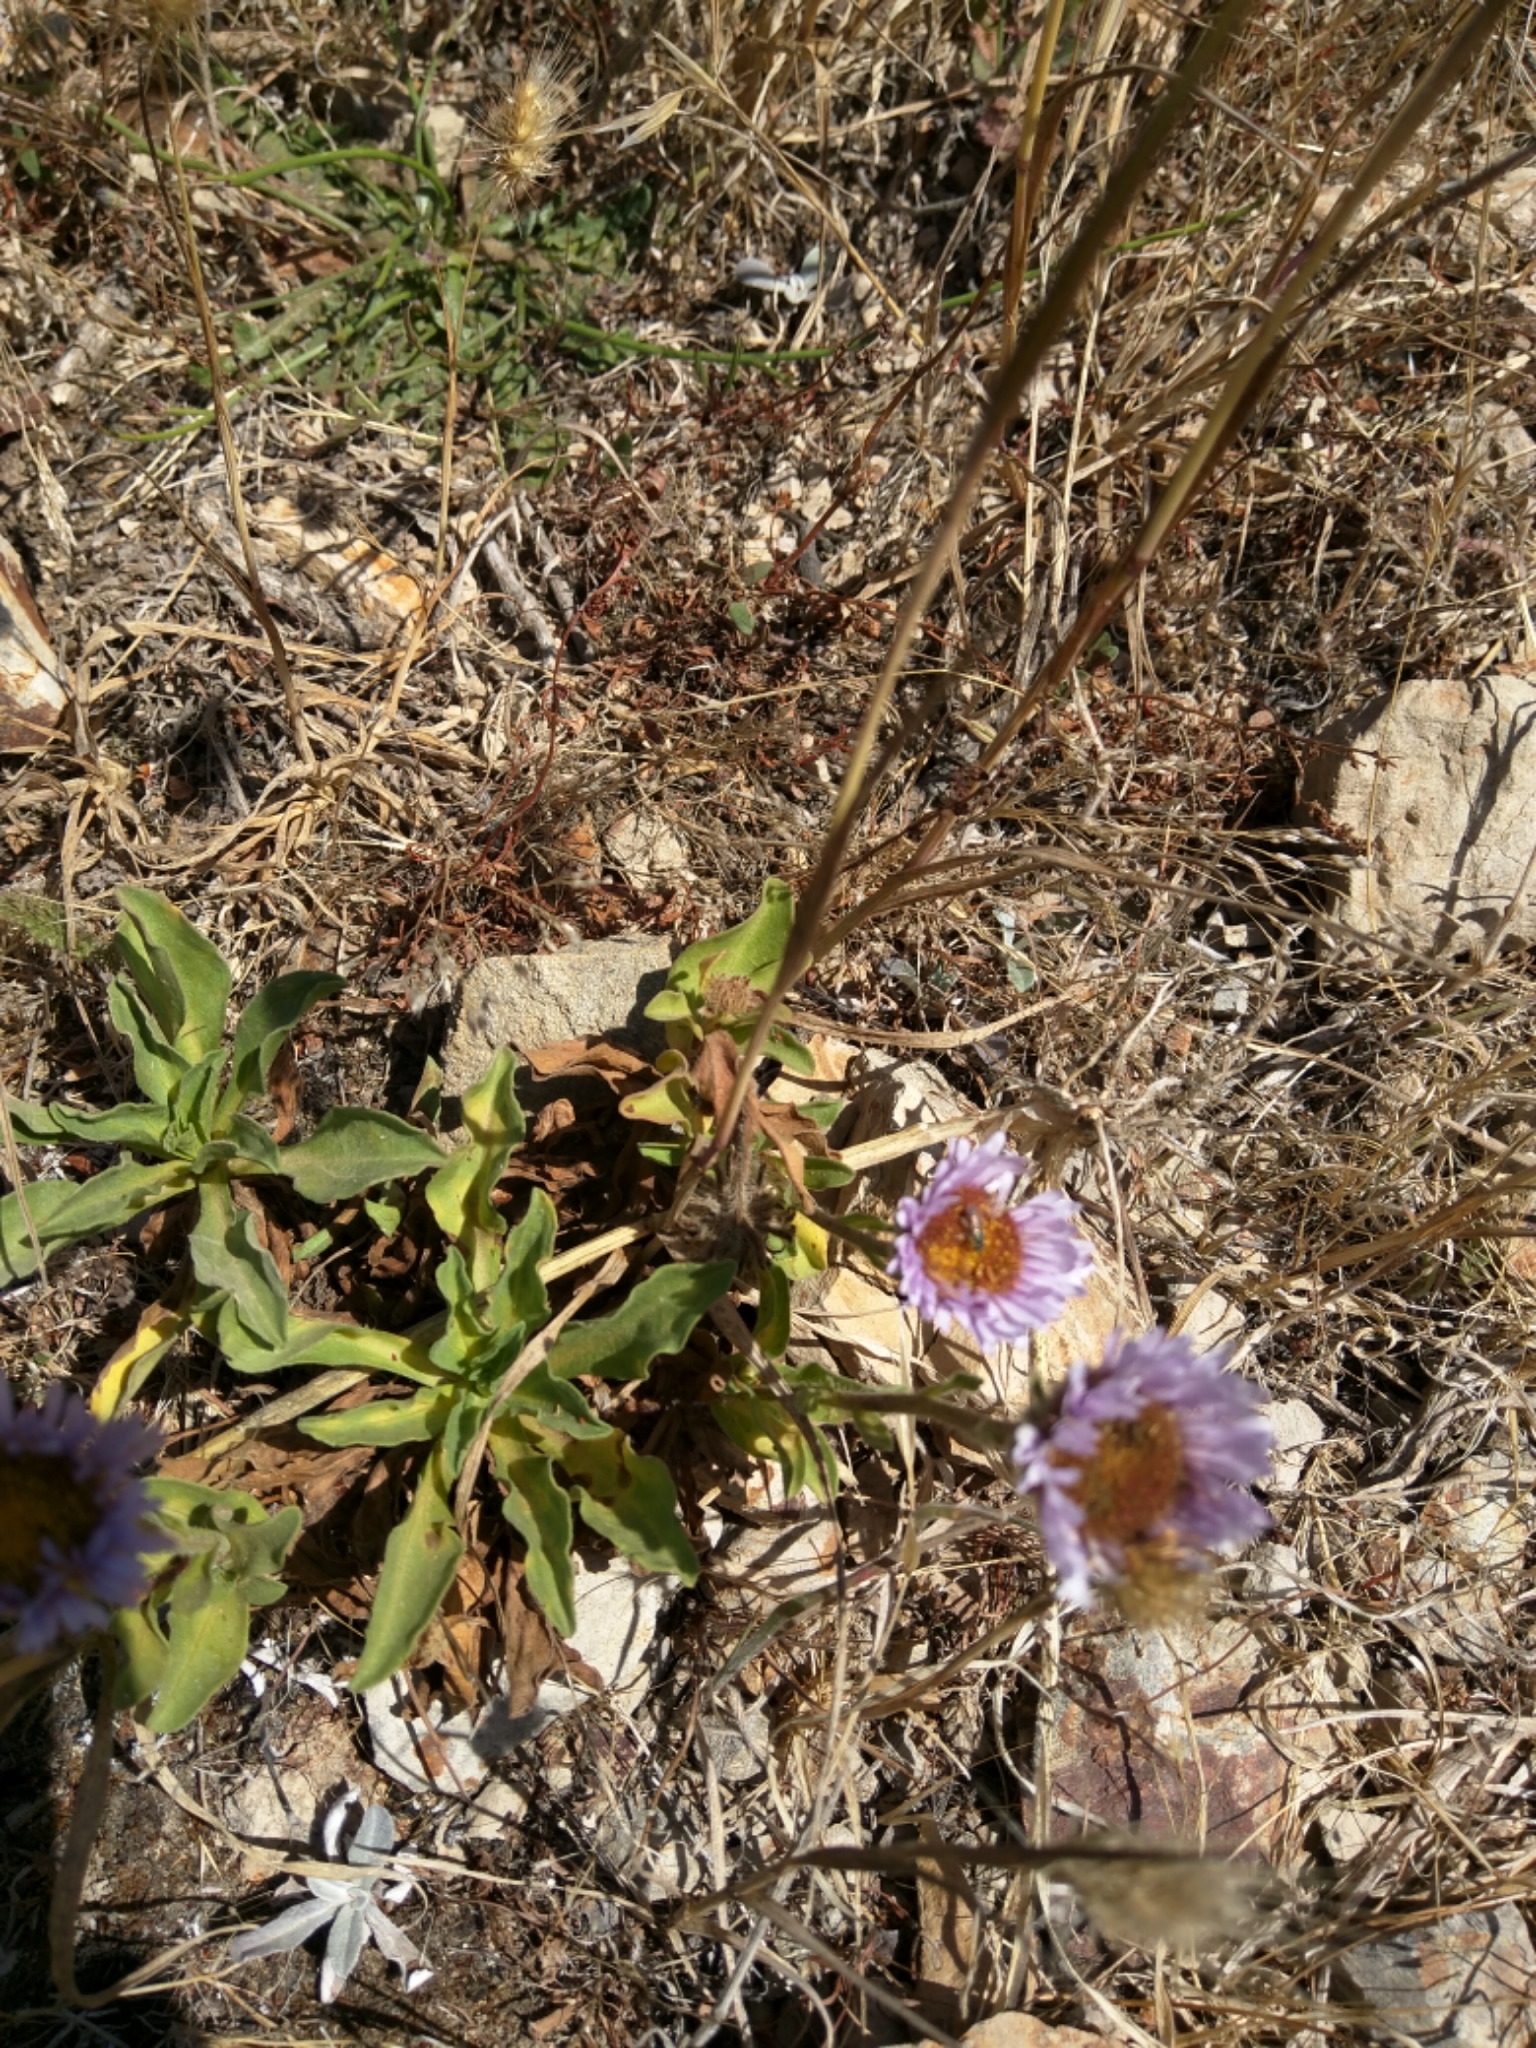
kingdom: Plantae
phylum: Tracheophyta
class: Magnoliopsida
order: Asterales
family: Asteraceae
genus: Erigeron
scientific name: Erigeron glaucus
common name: Seaside daisy
